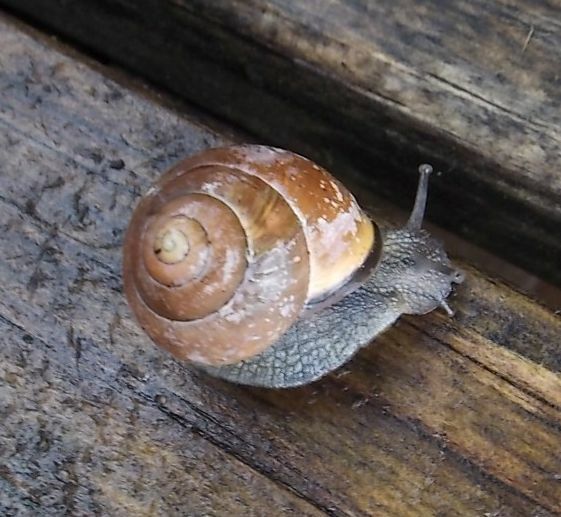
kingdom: Animalia
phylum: Mollusca
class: Gastropoda
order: Stylommatophora
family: Helicidae
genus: Cepaea
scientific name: Cepaea nemoralis
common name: Grovesnail
